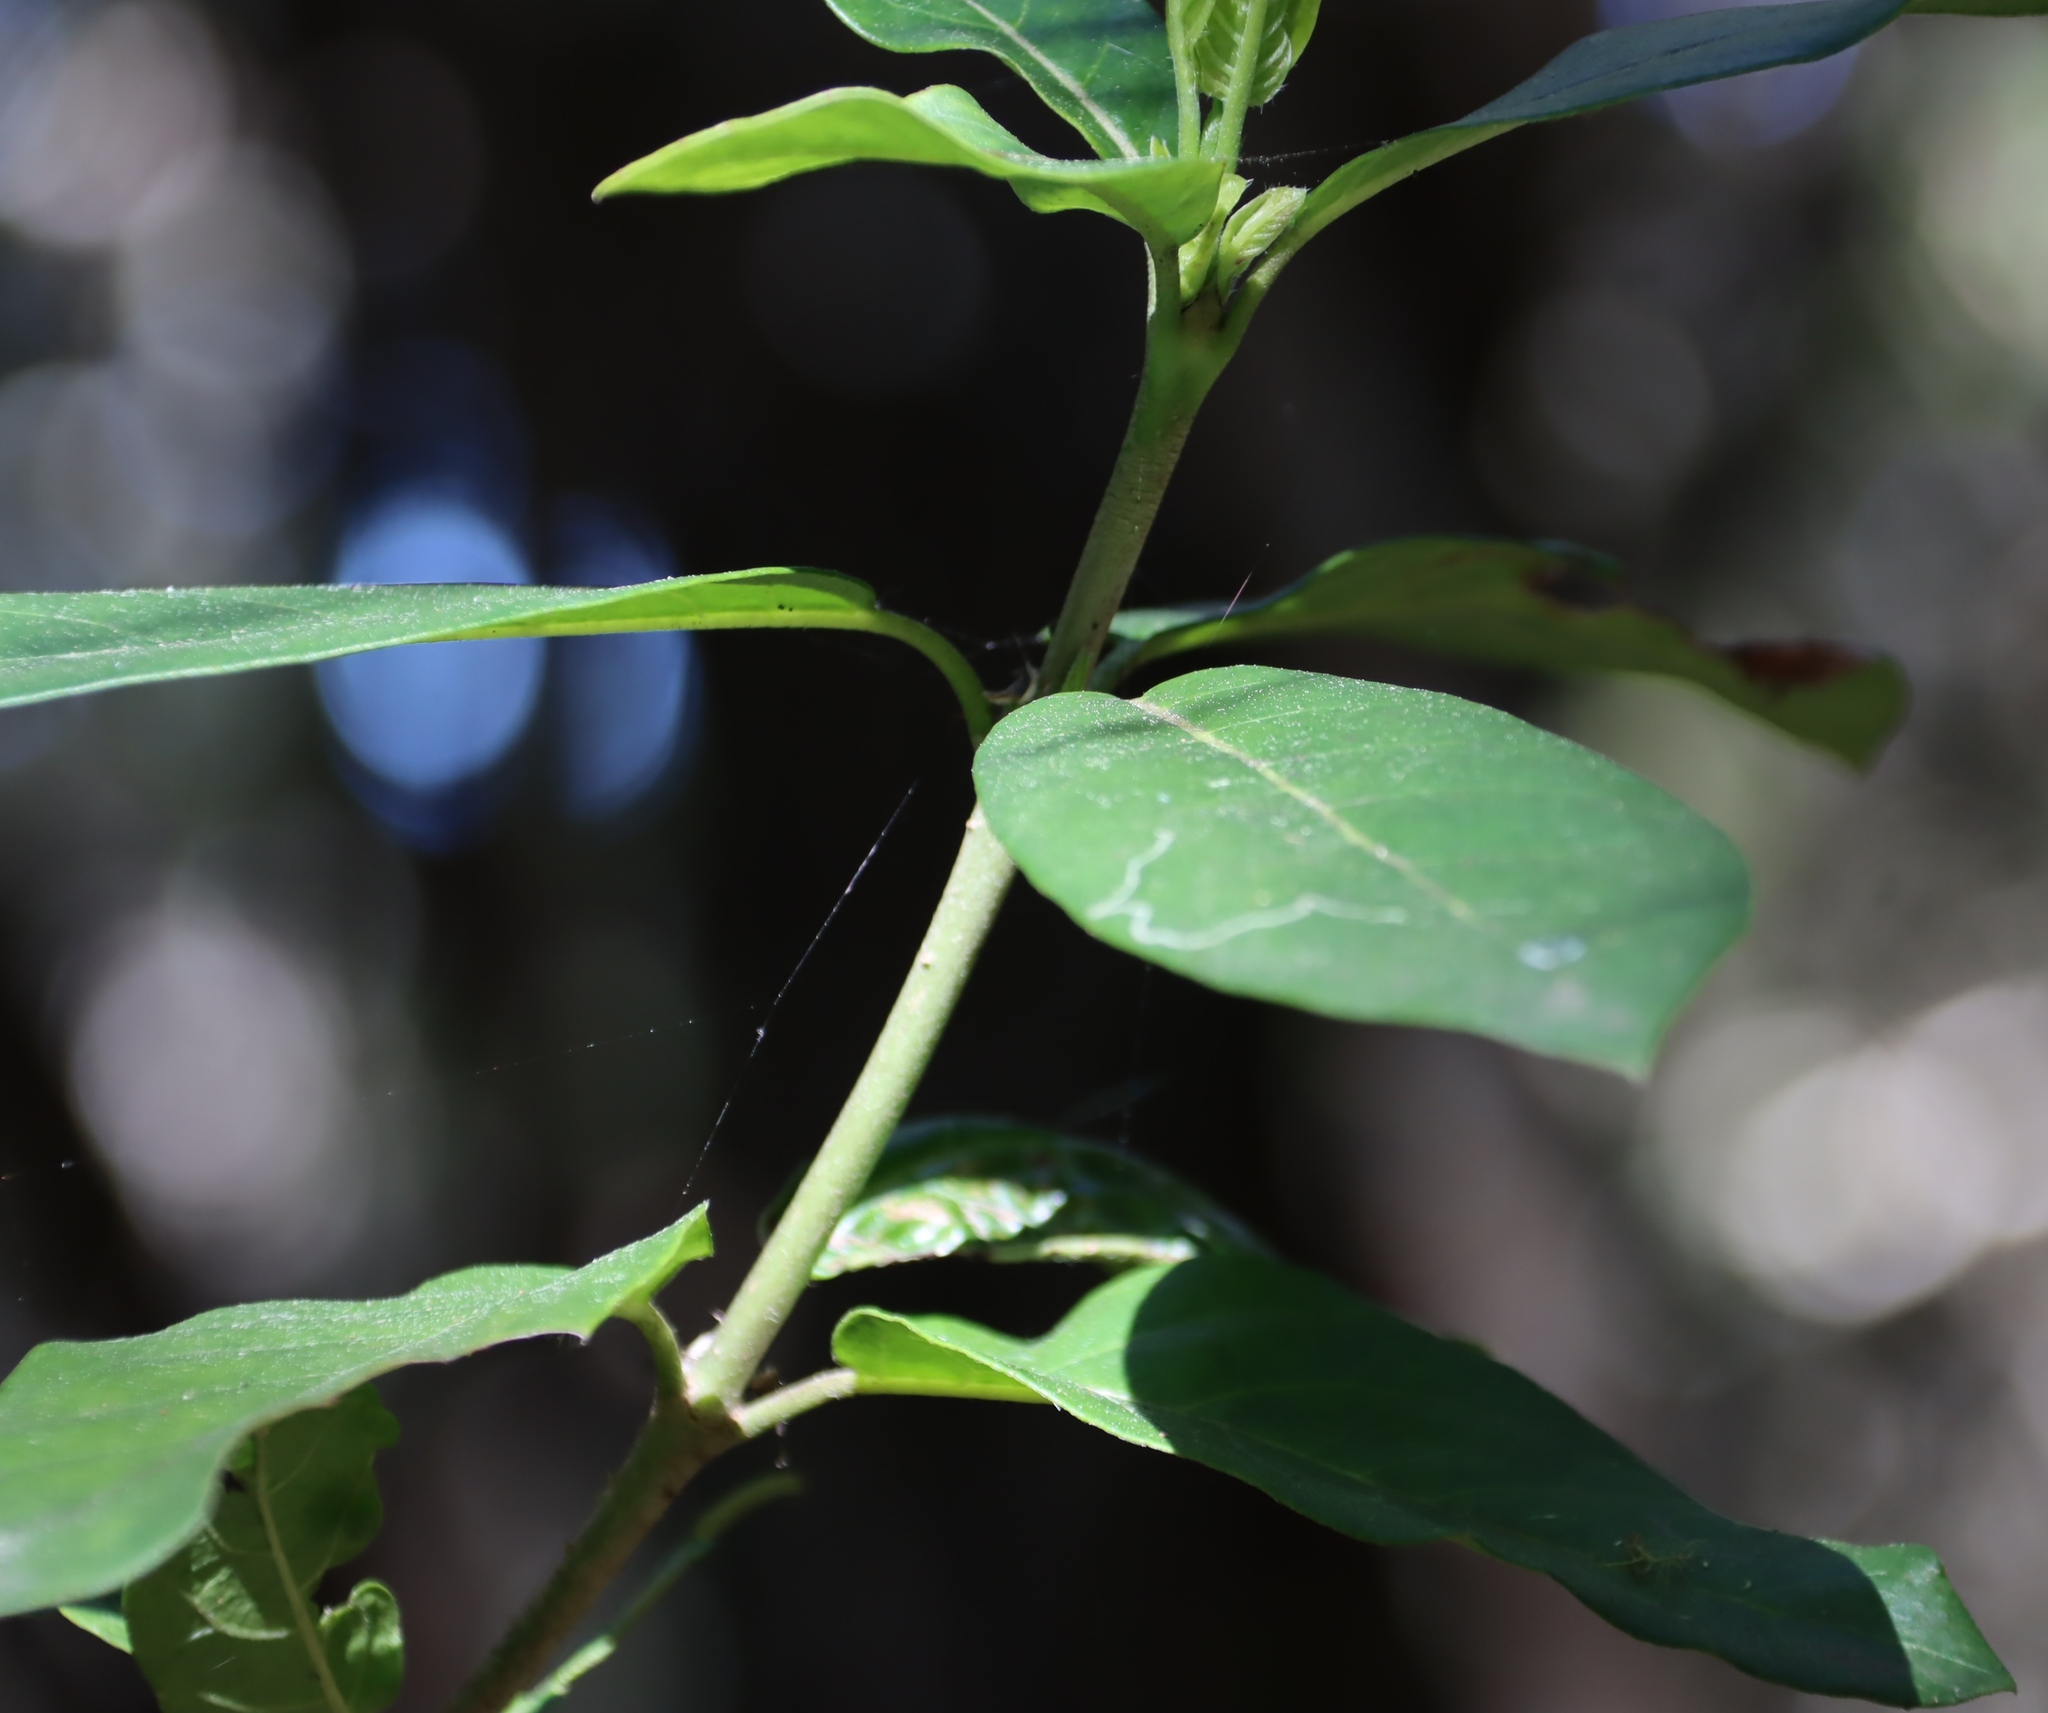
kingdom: Plantae
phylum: Tracheophyta
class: Magnoliopsida
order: Gentianales
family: Rubiaceae
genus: Canthium
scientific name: Canthium inerme
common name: Unarmed turkey-berry
